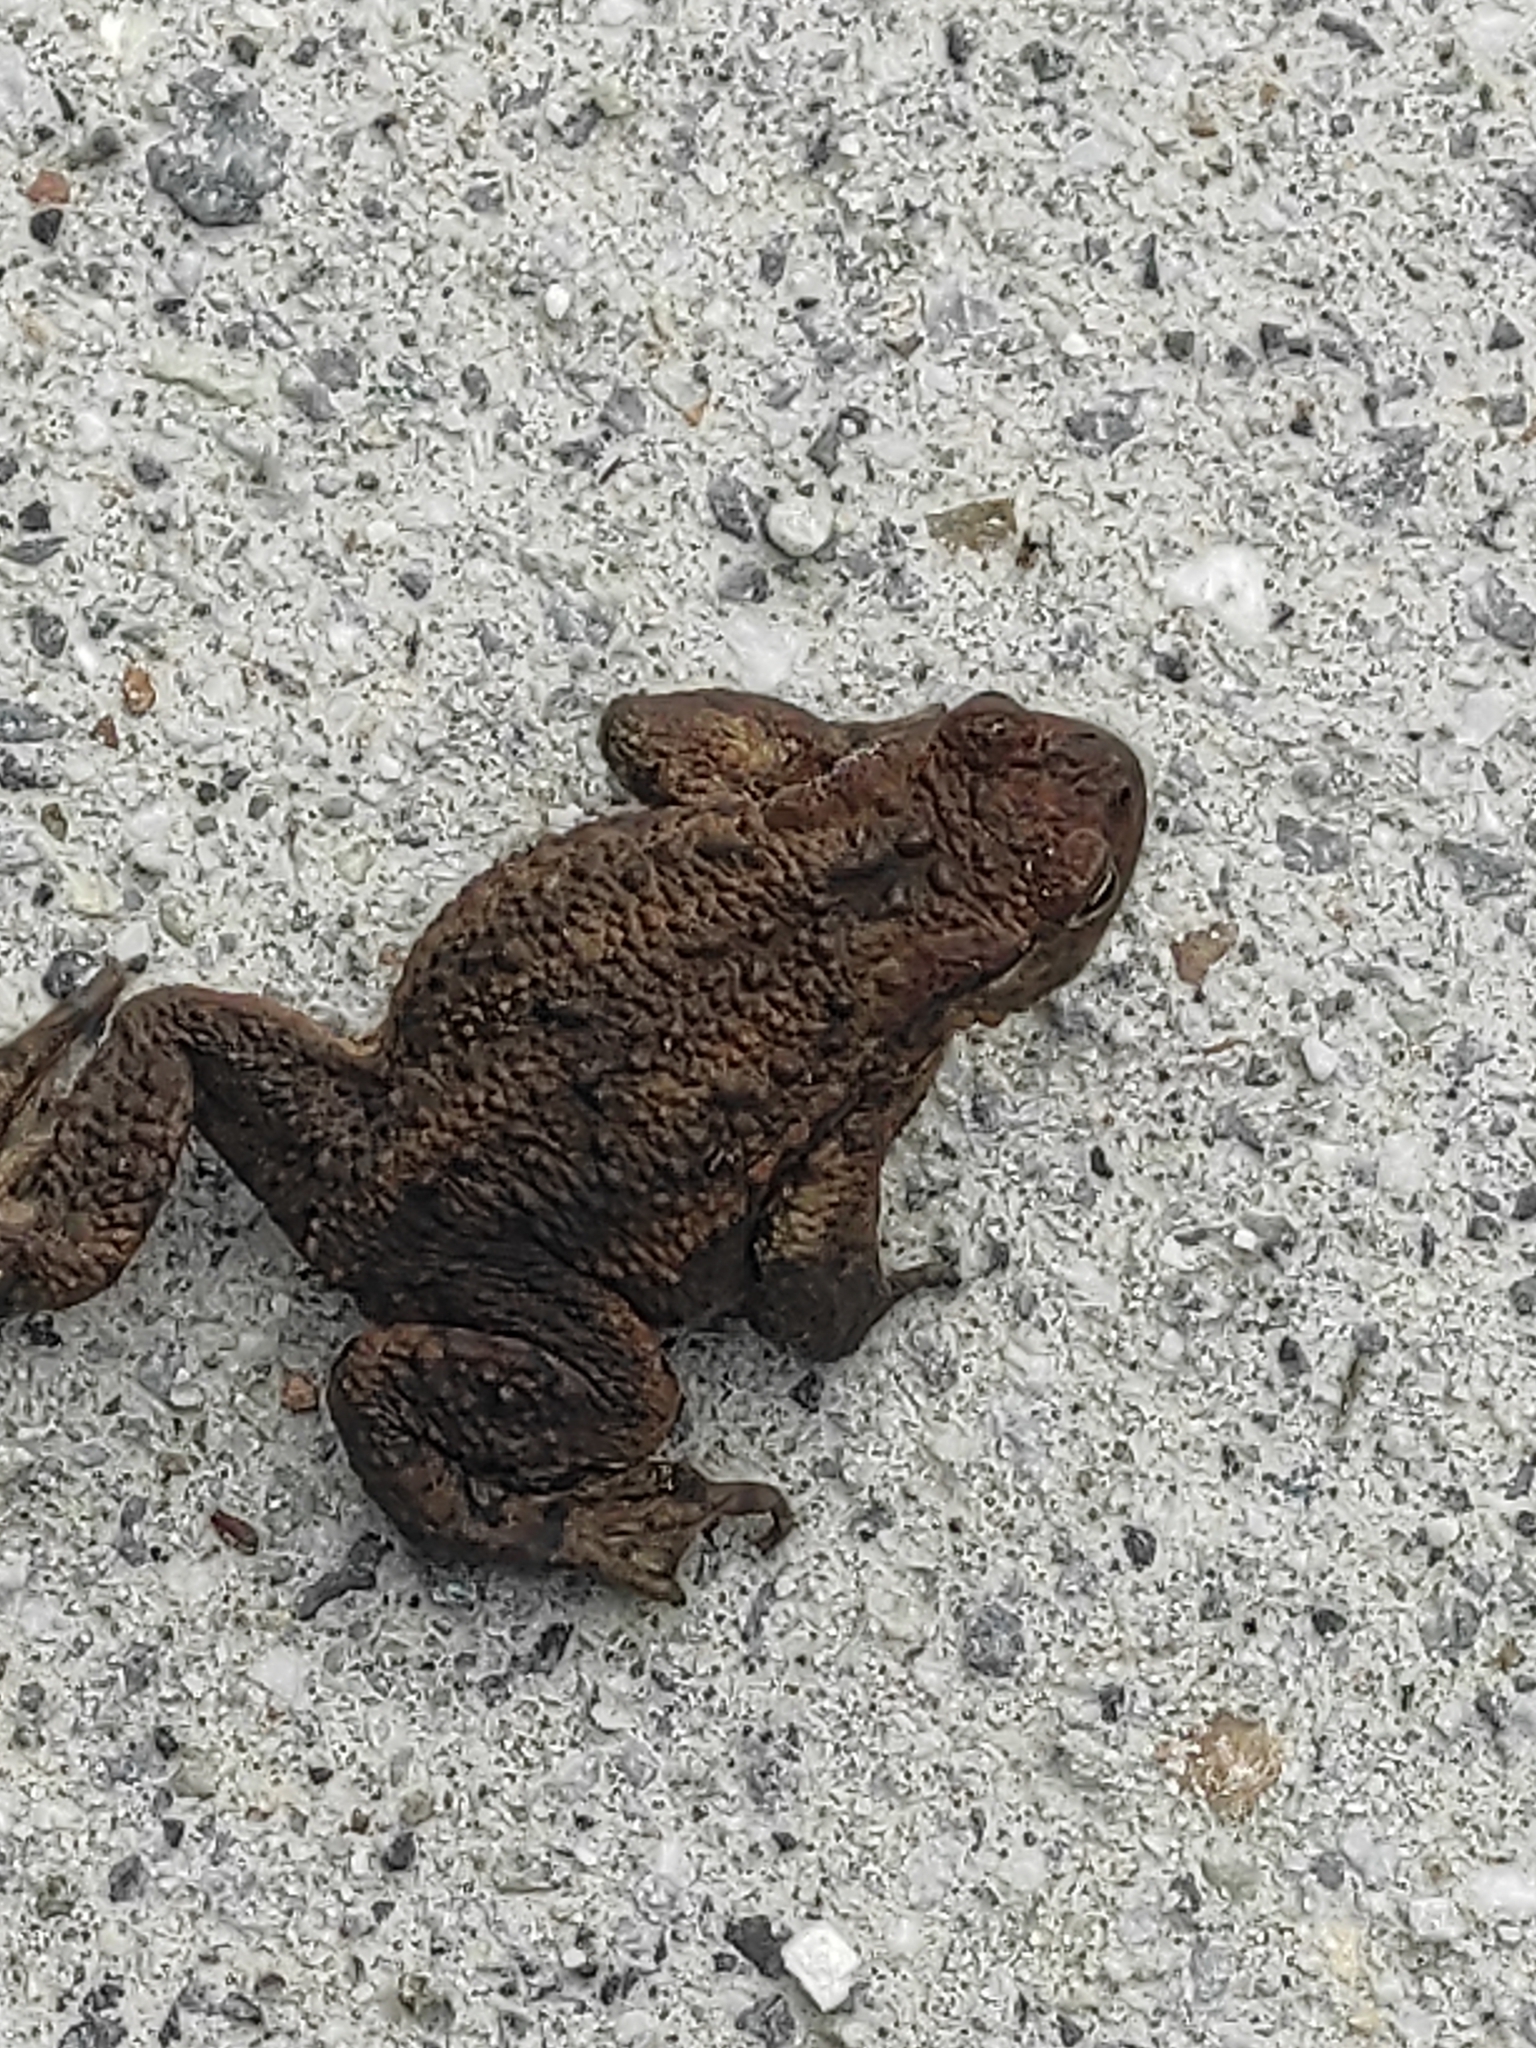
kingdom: Animalia
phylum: Chordata
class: Amphibia
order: Anura
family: Bufonidae
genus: Bufo
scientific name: Bufo bufo
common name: Common toad
